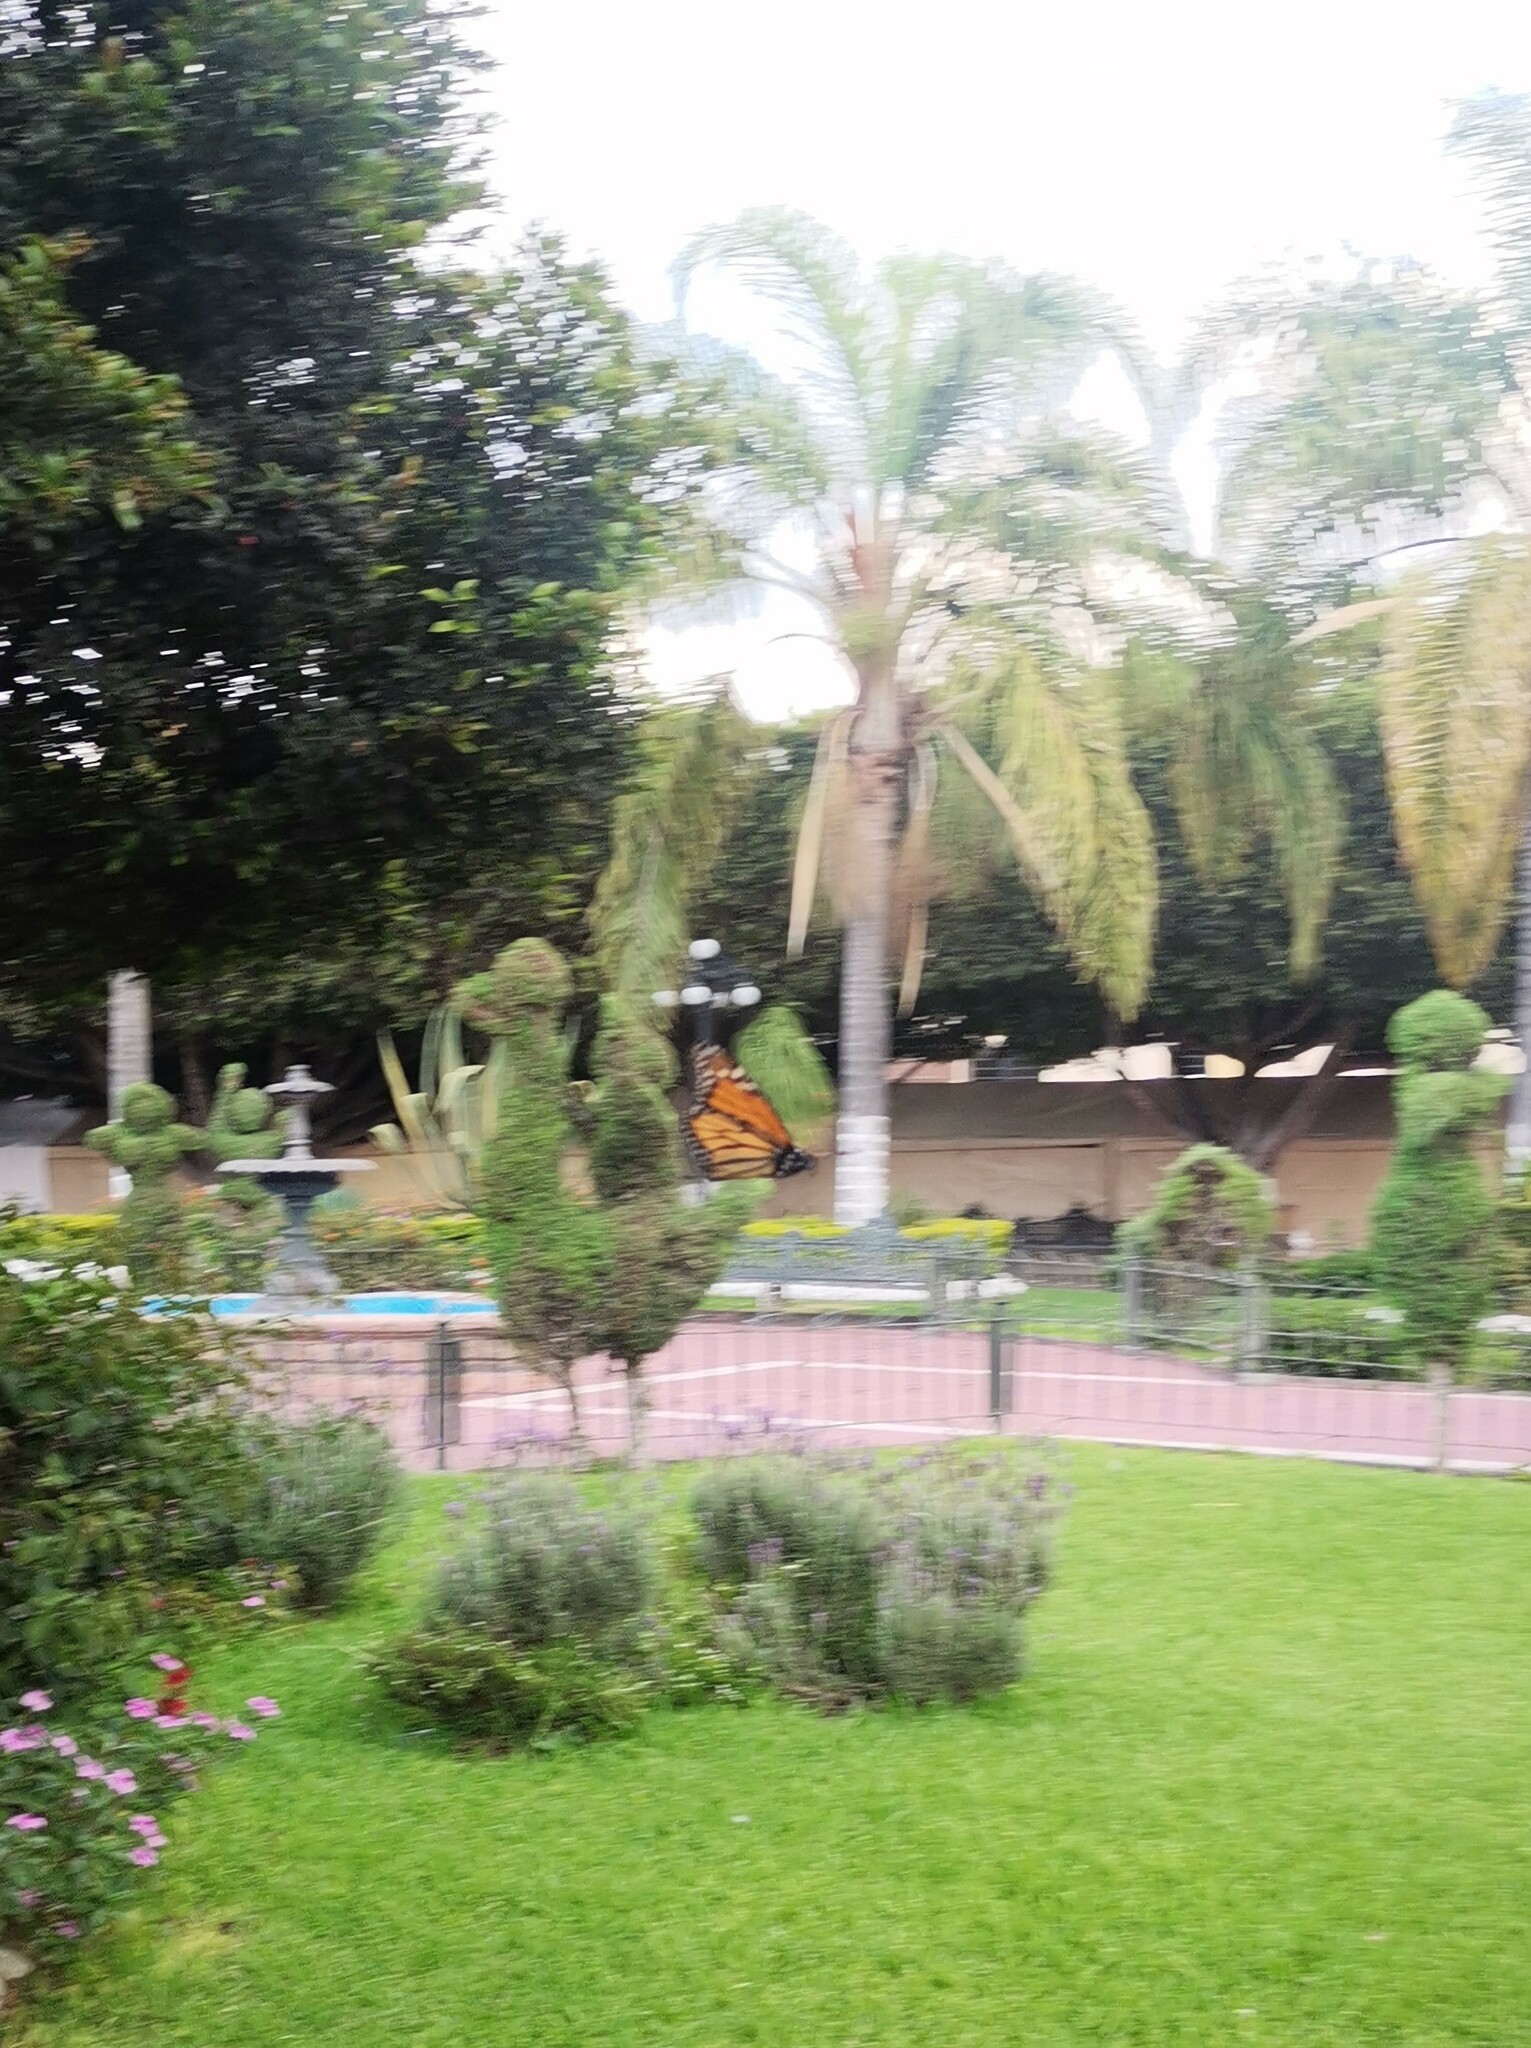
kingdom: Animalia
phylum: Arthropoda
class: Insecta
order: Lepidoptera
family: Nymphalidae
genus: Danaus
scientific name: Danaus plexippus
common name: Monarch
